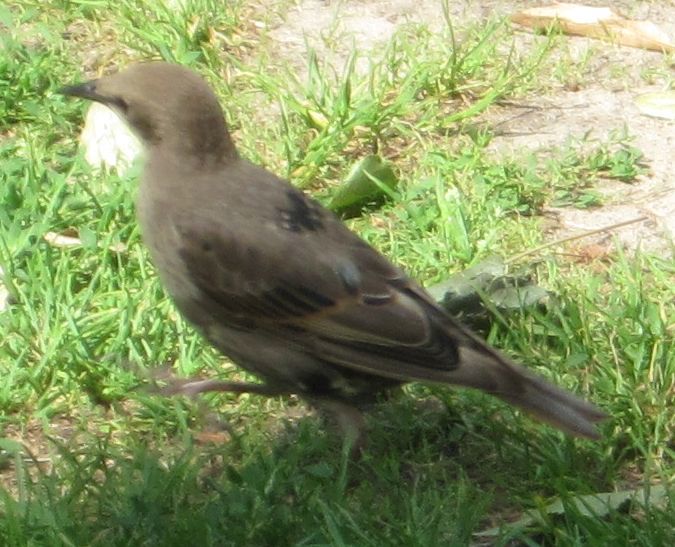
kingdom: Animalia
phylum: Chordata
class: Aves
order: Passeriformes
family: Sturnidae
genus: Sturnus
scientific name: Sturnus vulgaris
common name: Common starling
